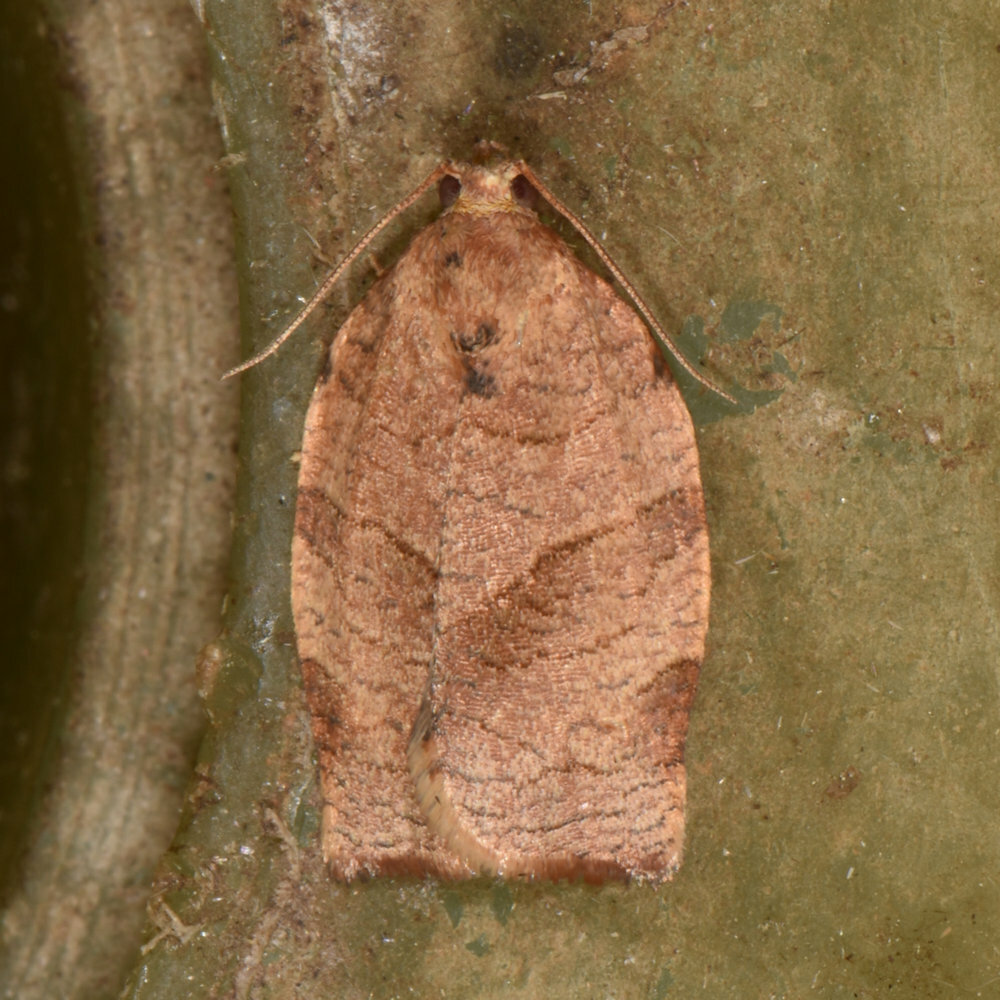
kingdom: Animalia
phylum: Arthropoda
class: Insecta
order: Lepidoptera
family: Tortricidae
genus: Choristoneura
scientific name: Choristoneura rosaceana
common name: Oblique-banded leafroller moth
